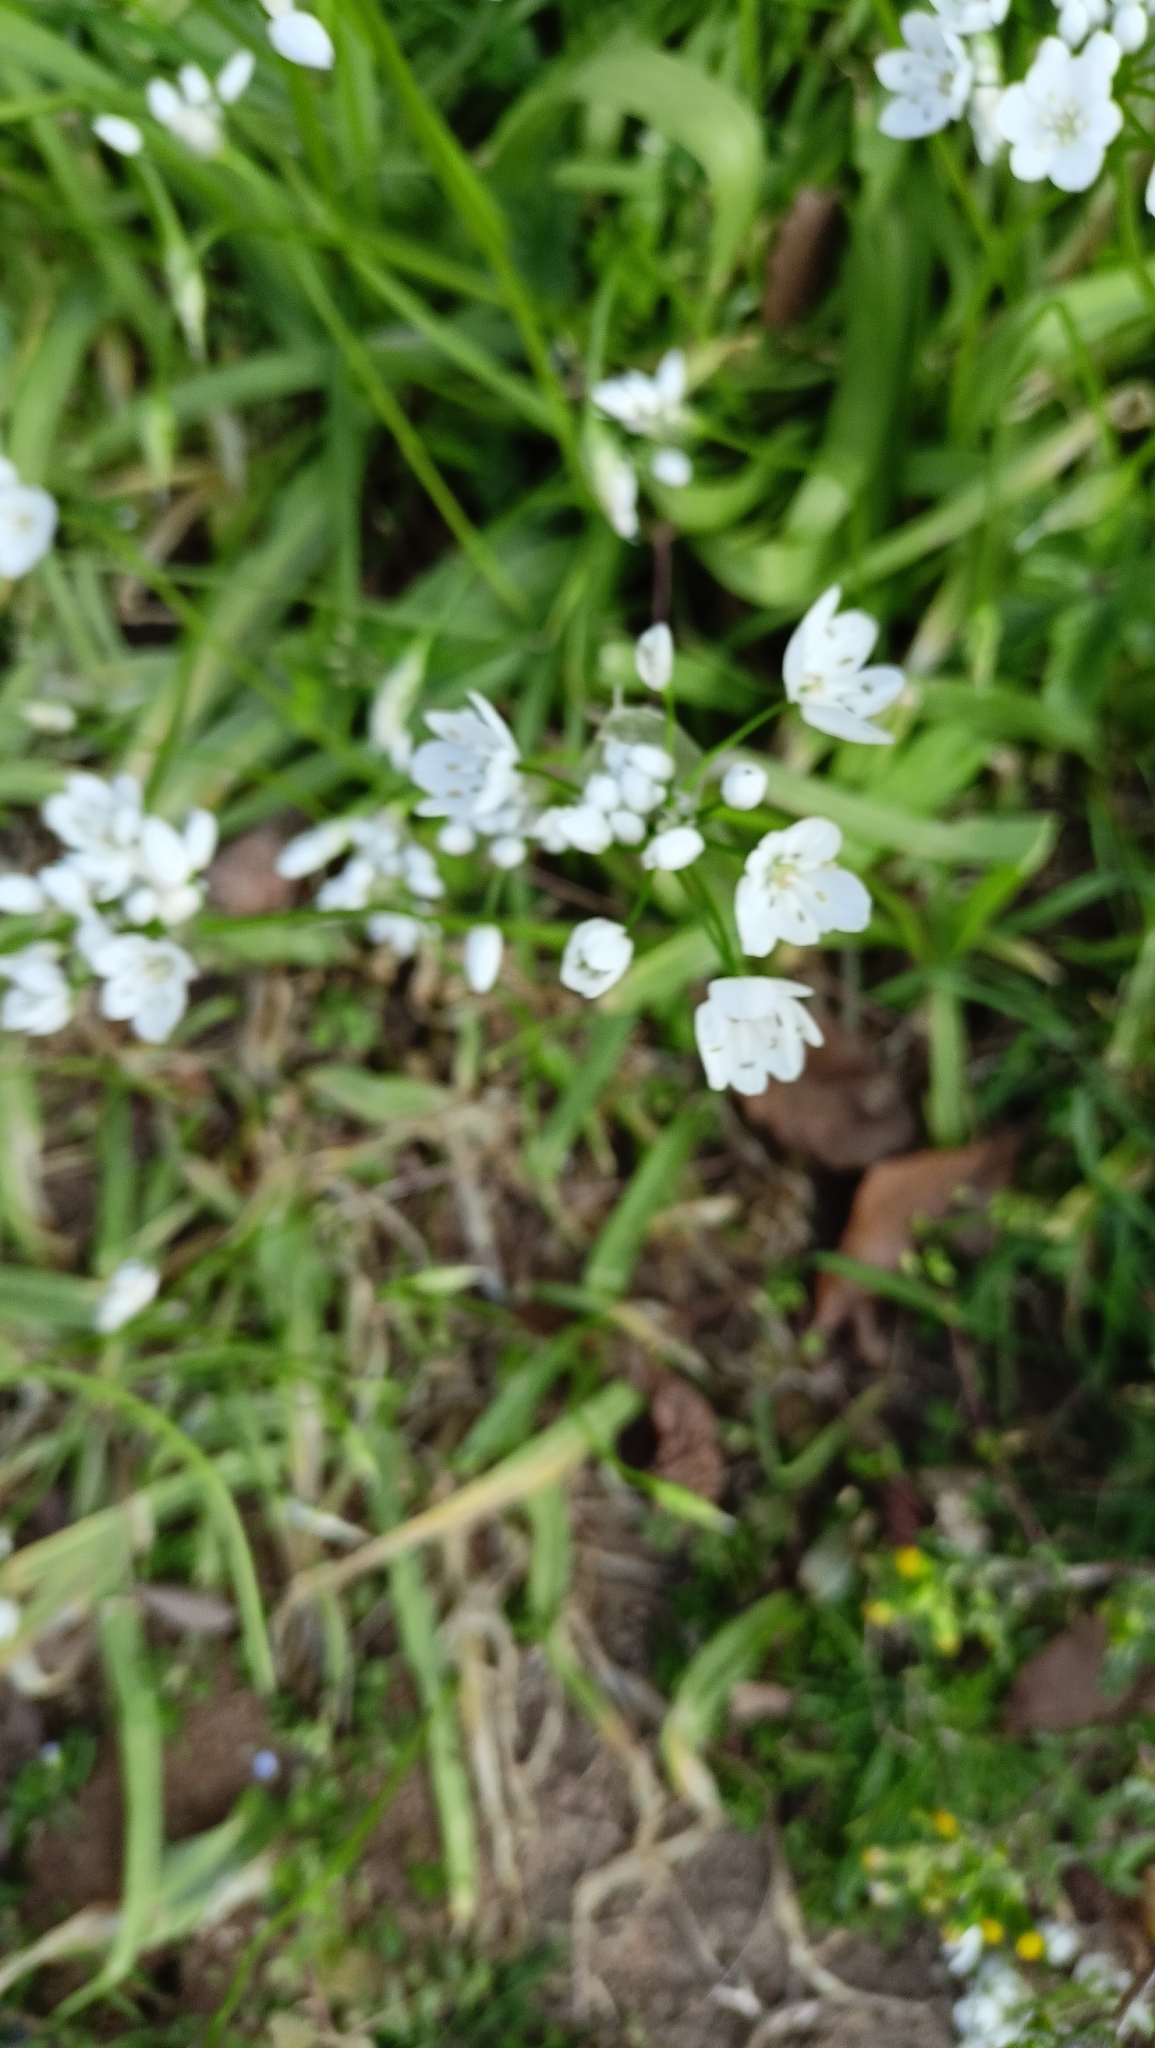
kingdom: Plantae
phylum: Tracheophyta
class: Liliopsida
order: Asparagales
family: Amaryllidaceae
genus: Allium
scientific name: Allium neapolitanum
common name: Neapolitan garlic
